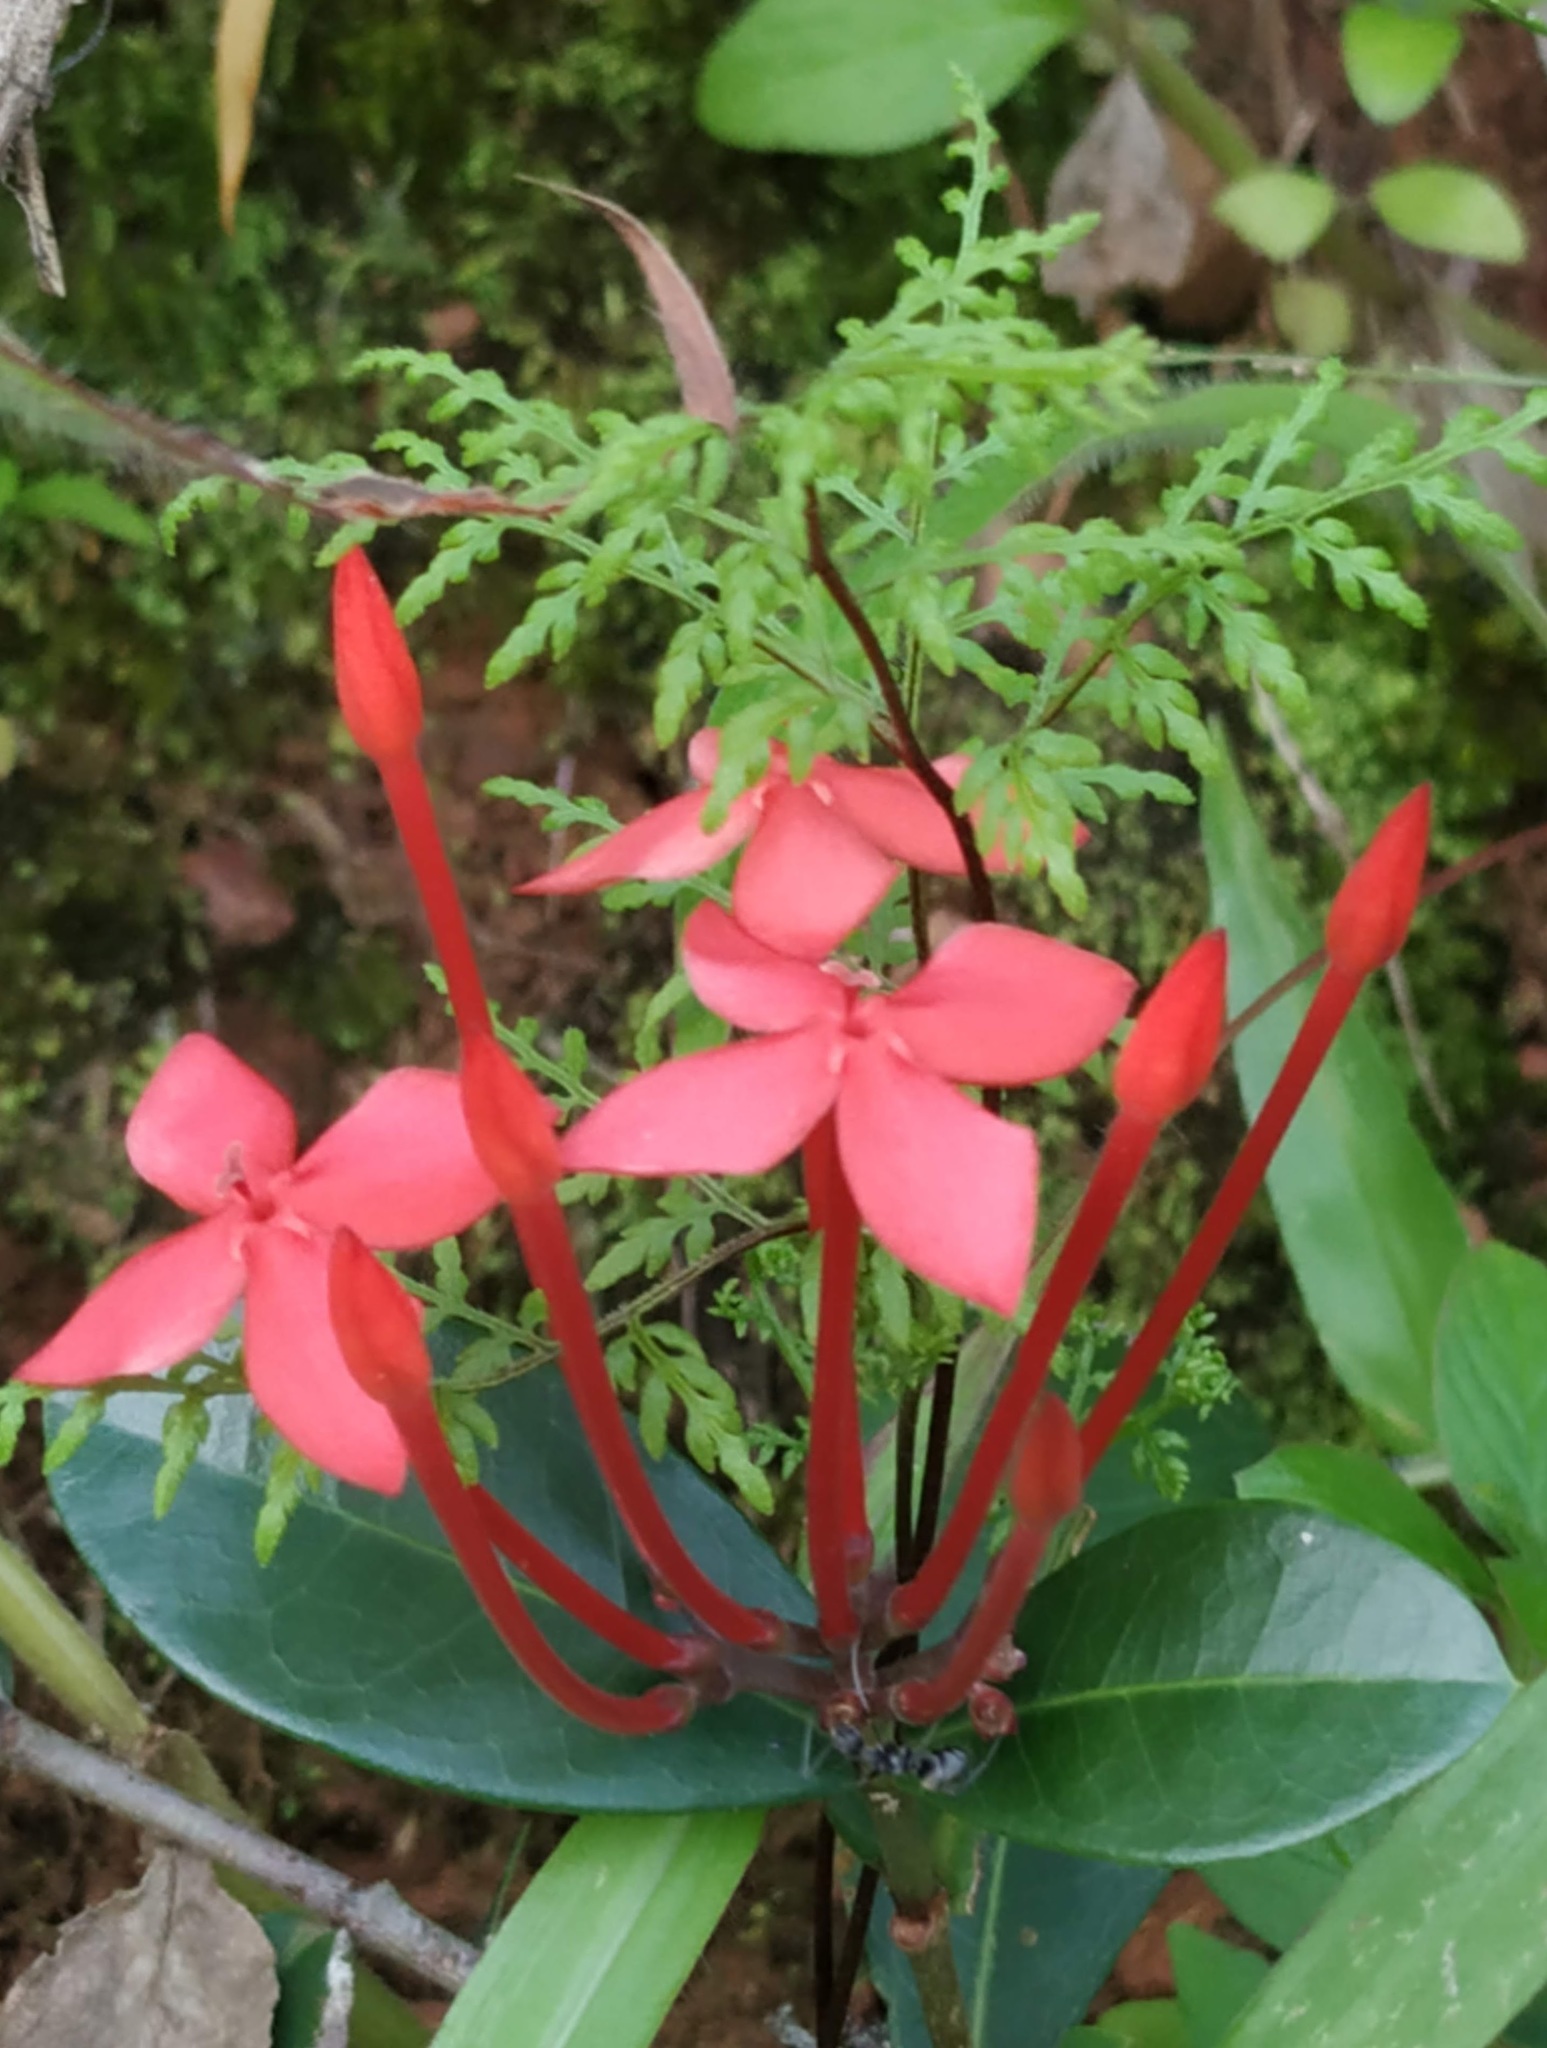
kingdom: Plantae
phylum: Tracheophyta
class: Magnoliopsida
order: Gentianales
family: Rubiaceae
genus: Ixora
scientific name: Ixora coccinea
